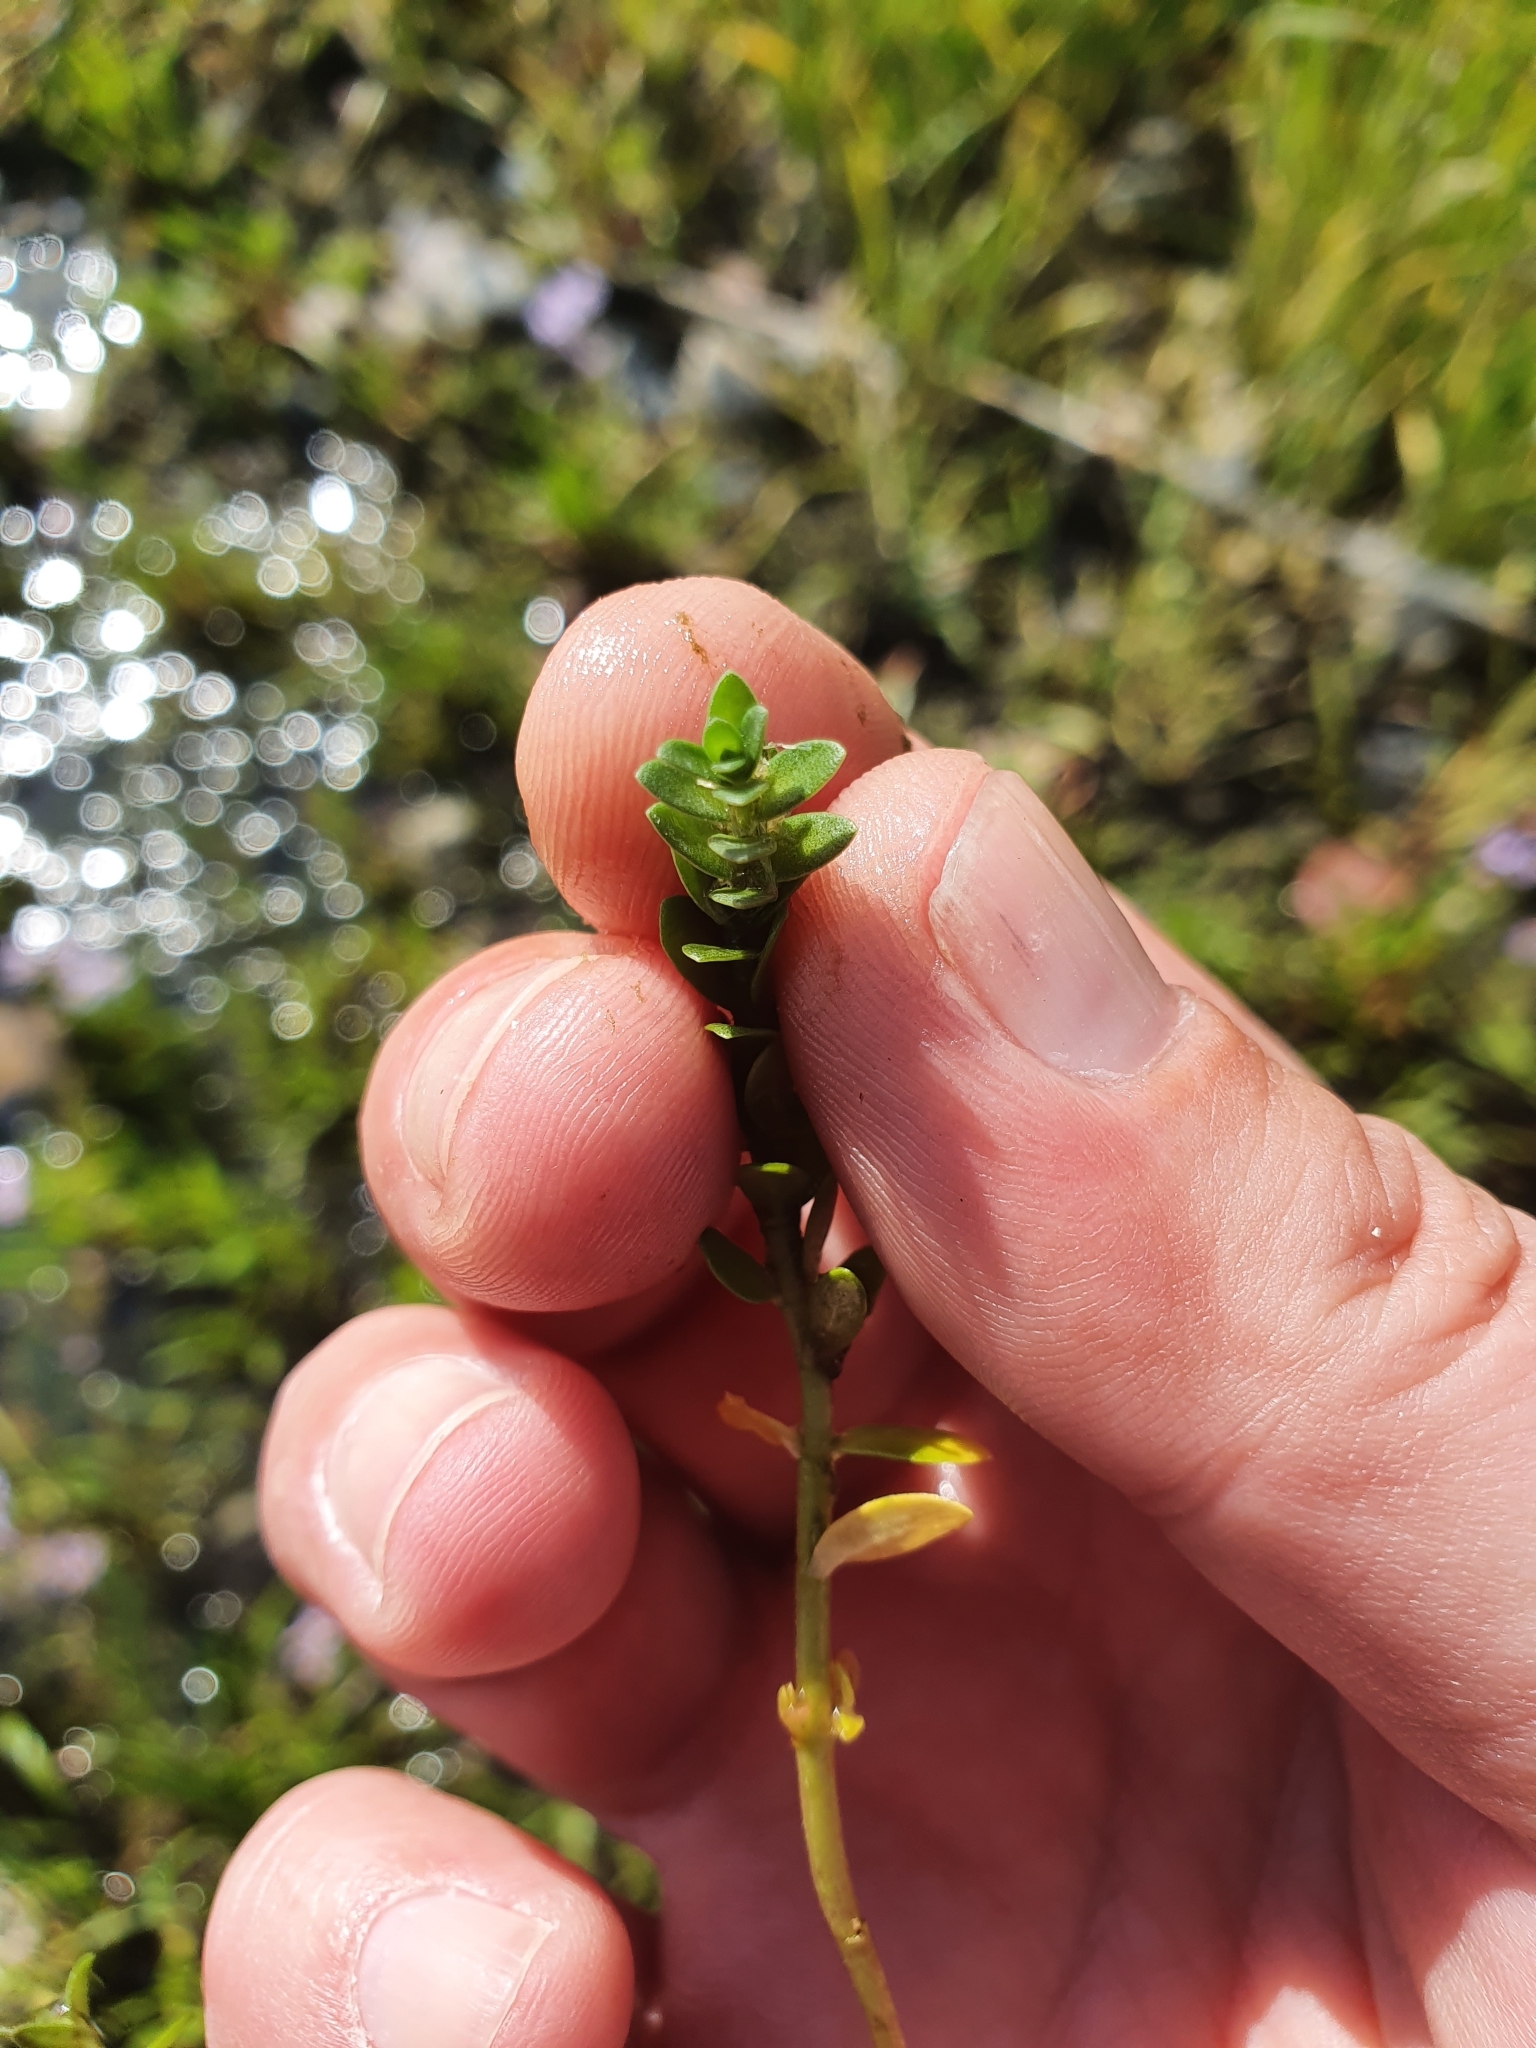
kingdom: Plantae
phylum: Tracheophyta
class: Magnoliopsida
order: Ericales
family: Primulaceae
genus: Lysimachia
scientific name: Lysimachia maritima
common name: Sea milkwort
